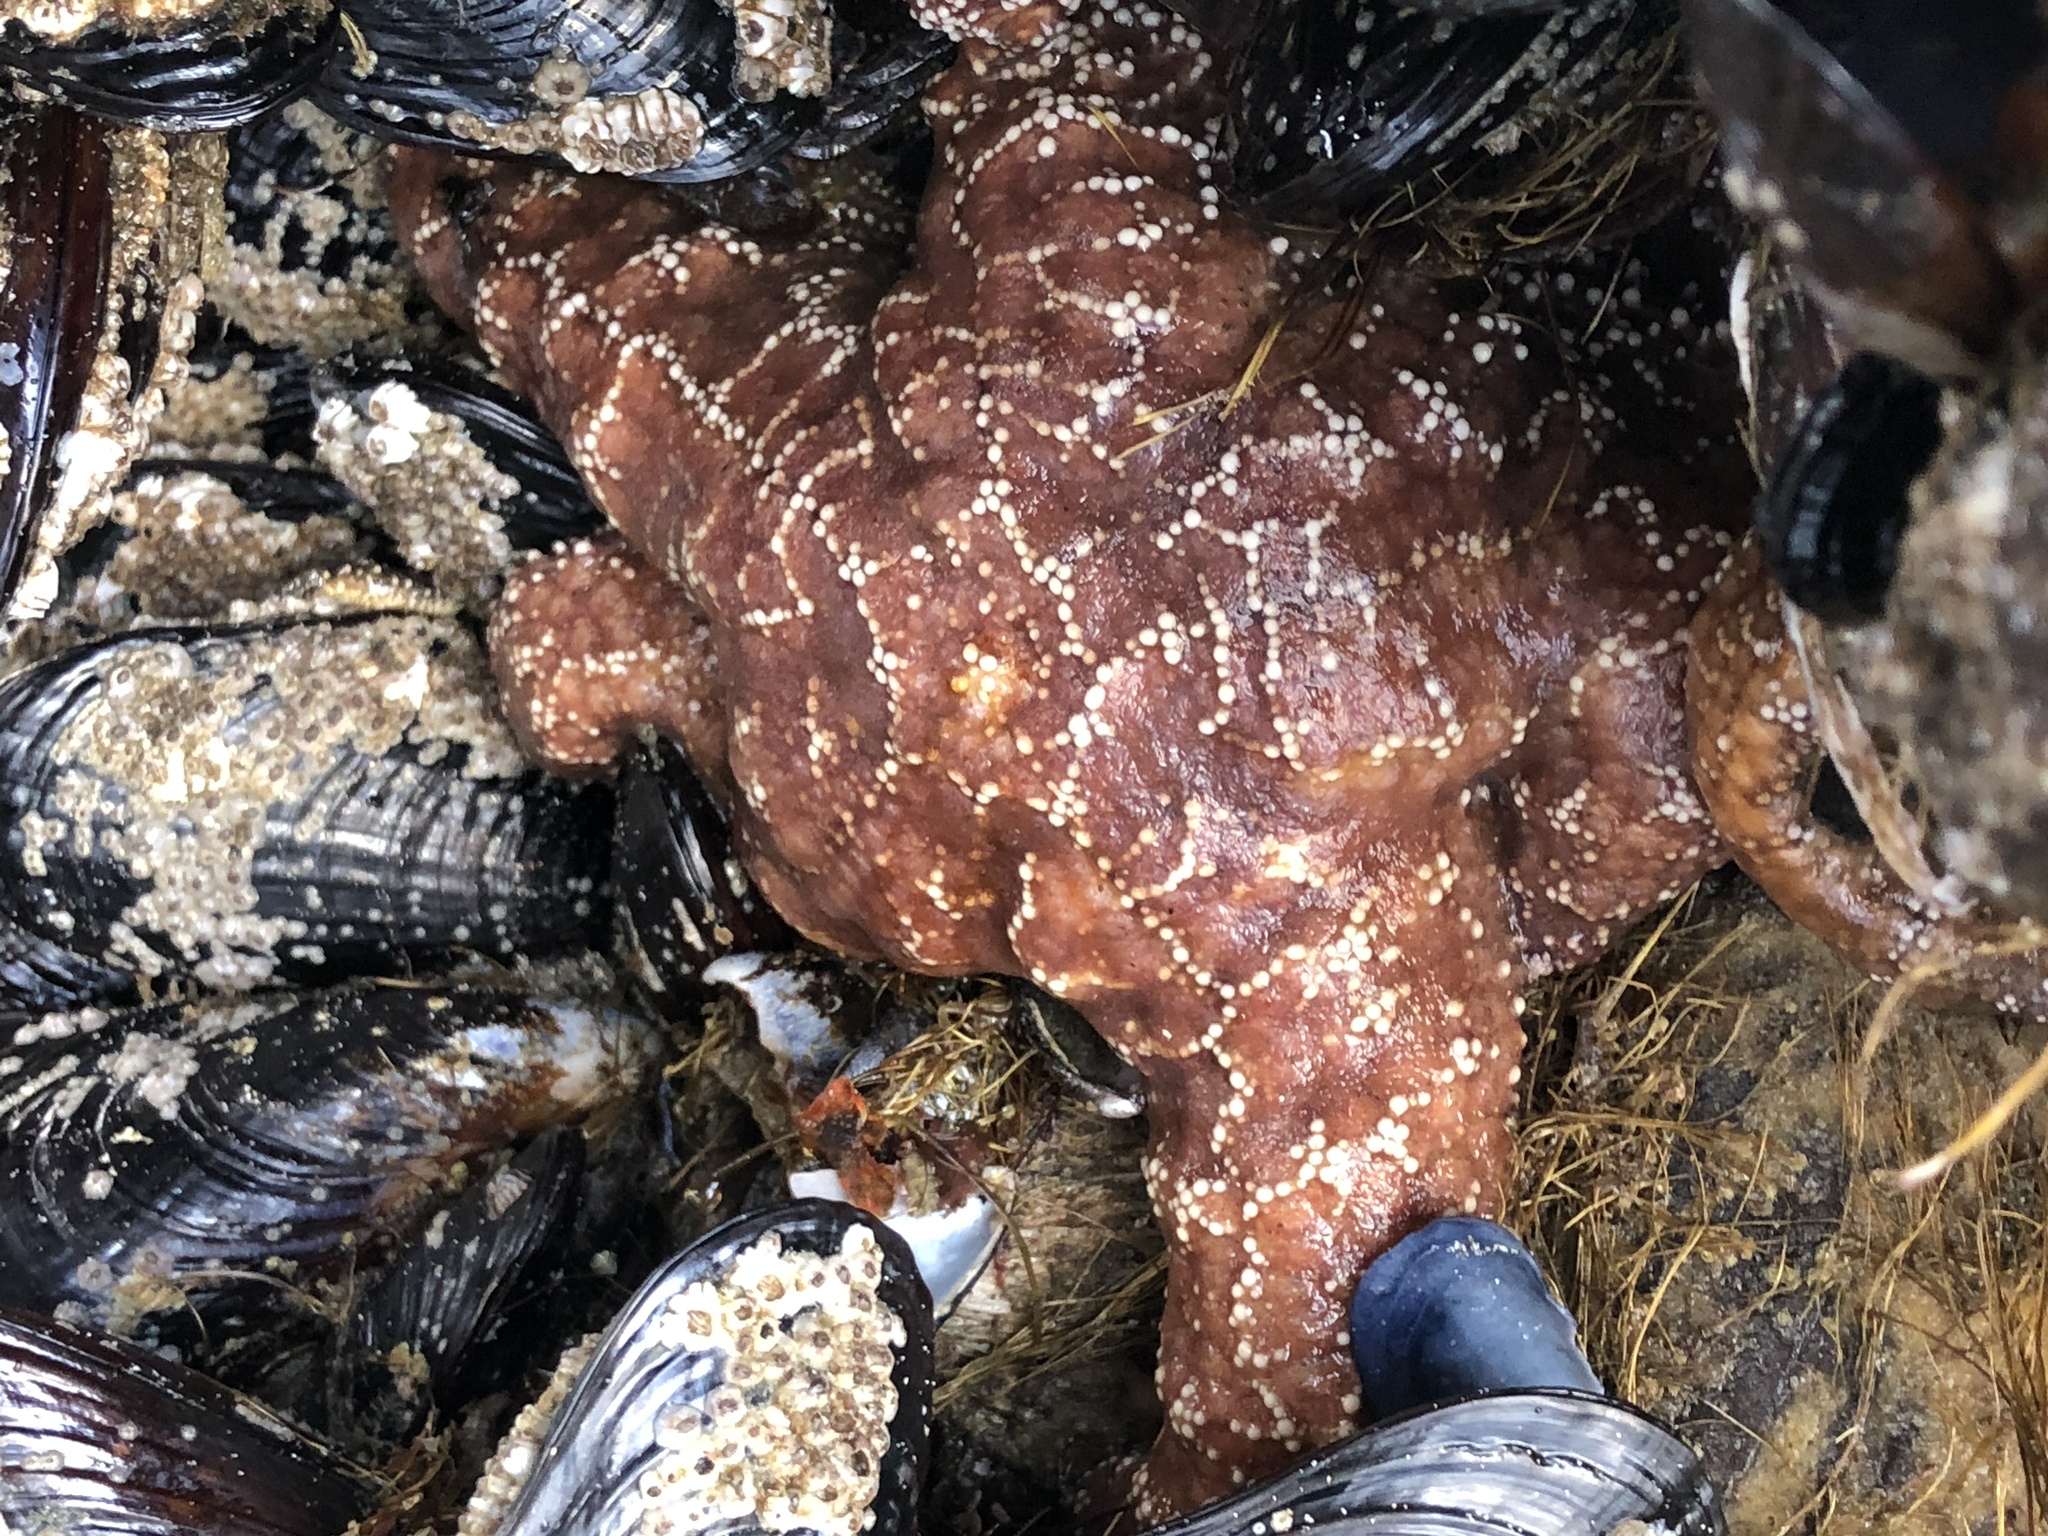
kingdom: Animalia
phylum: Echinodermata
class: Asteroidea
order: Forcipulatida
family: Asteriidae
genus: Pisaster
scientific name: Pisaster ochraceus
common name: Ochre stars
